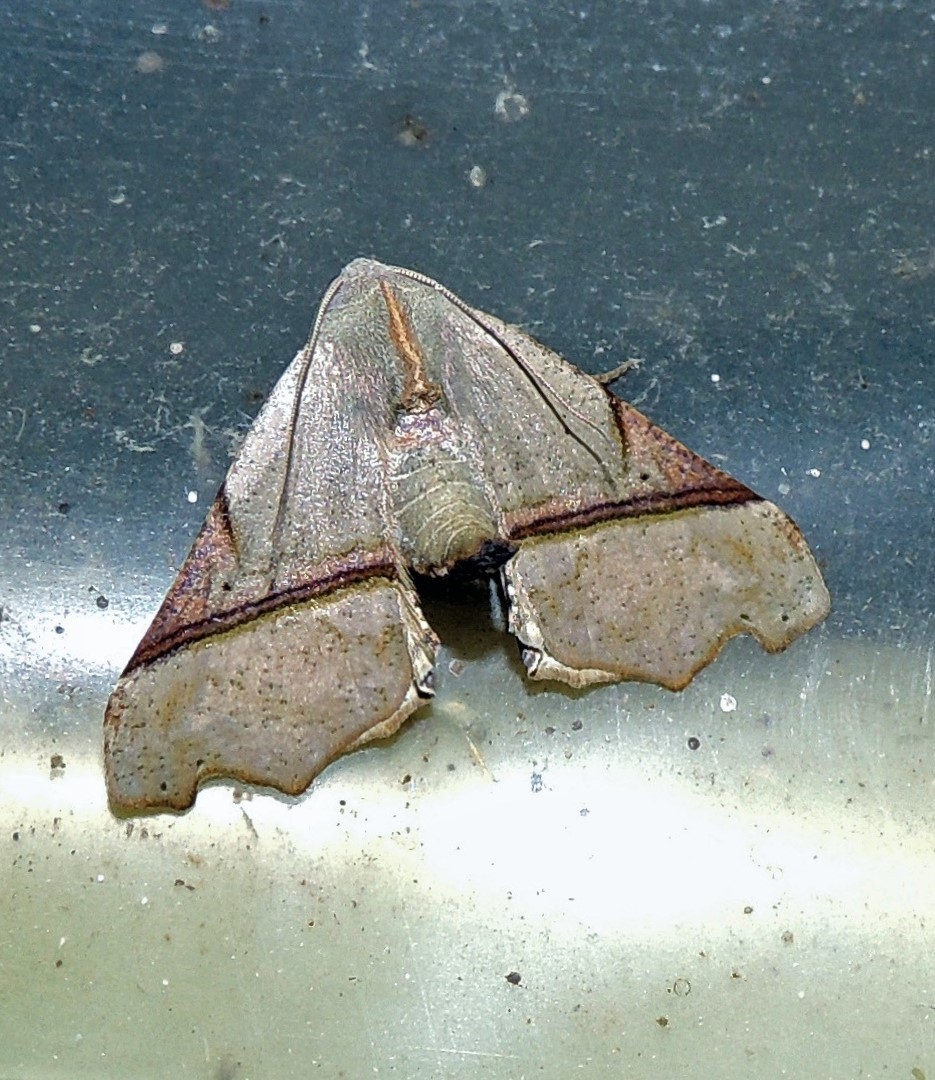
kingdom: Animalia
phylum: Arthropoda
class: Insecta
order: Lepidoptera
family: Geometridae
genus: Pero
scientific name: Pero amanda
